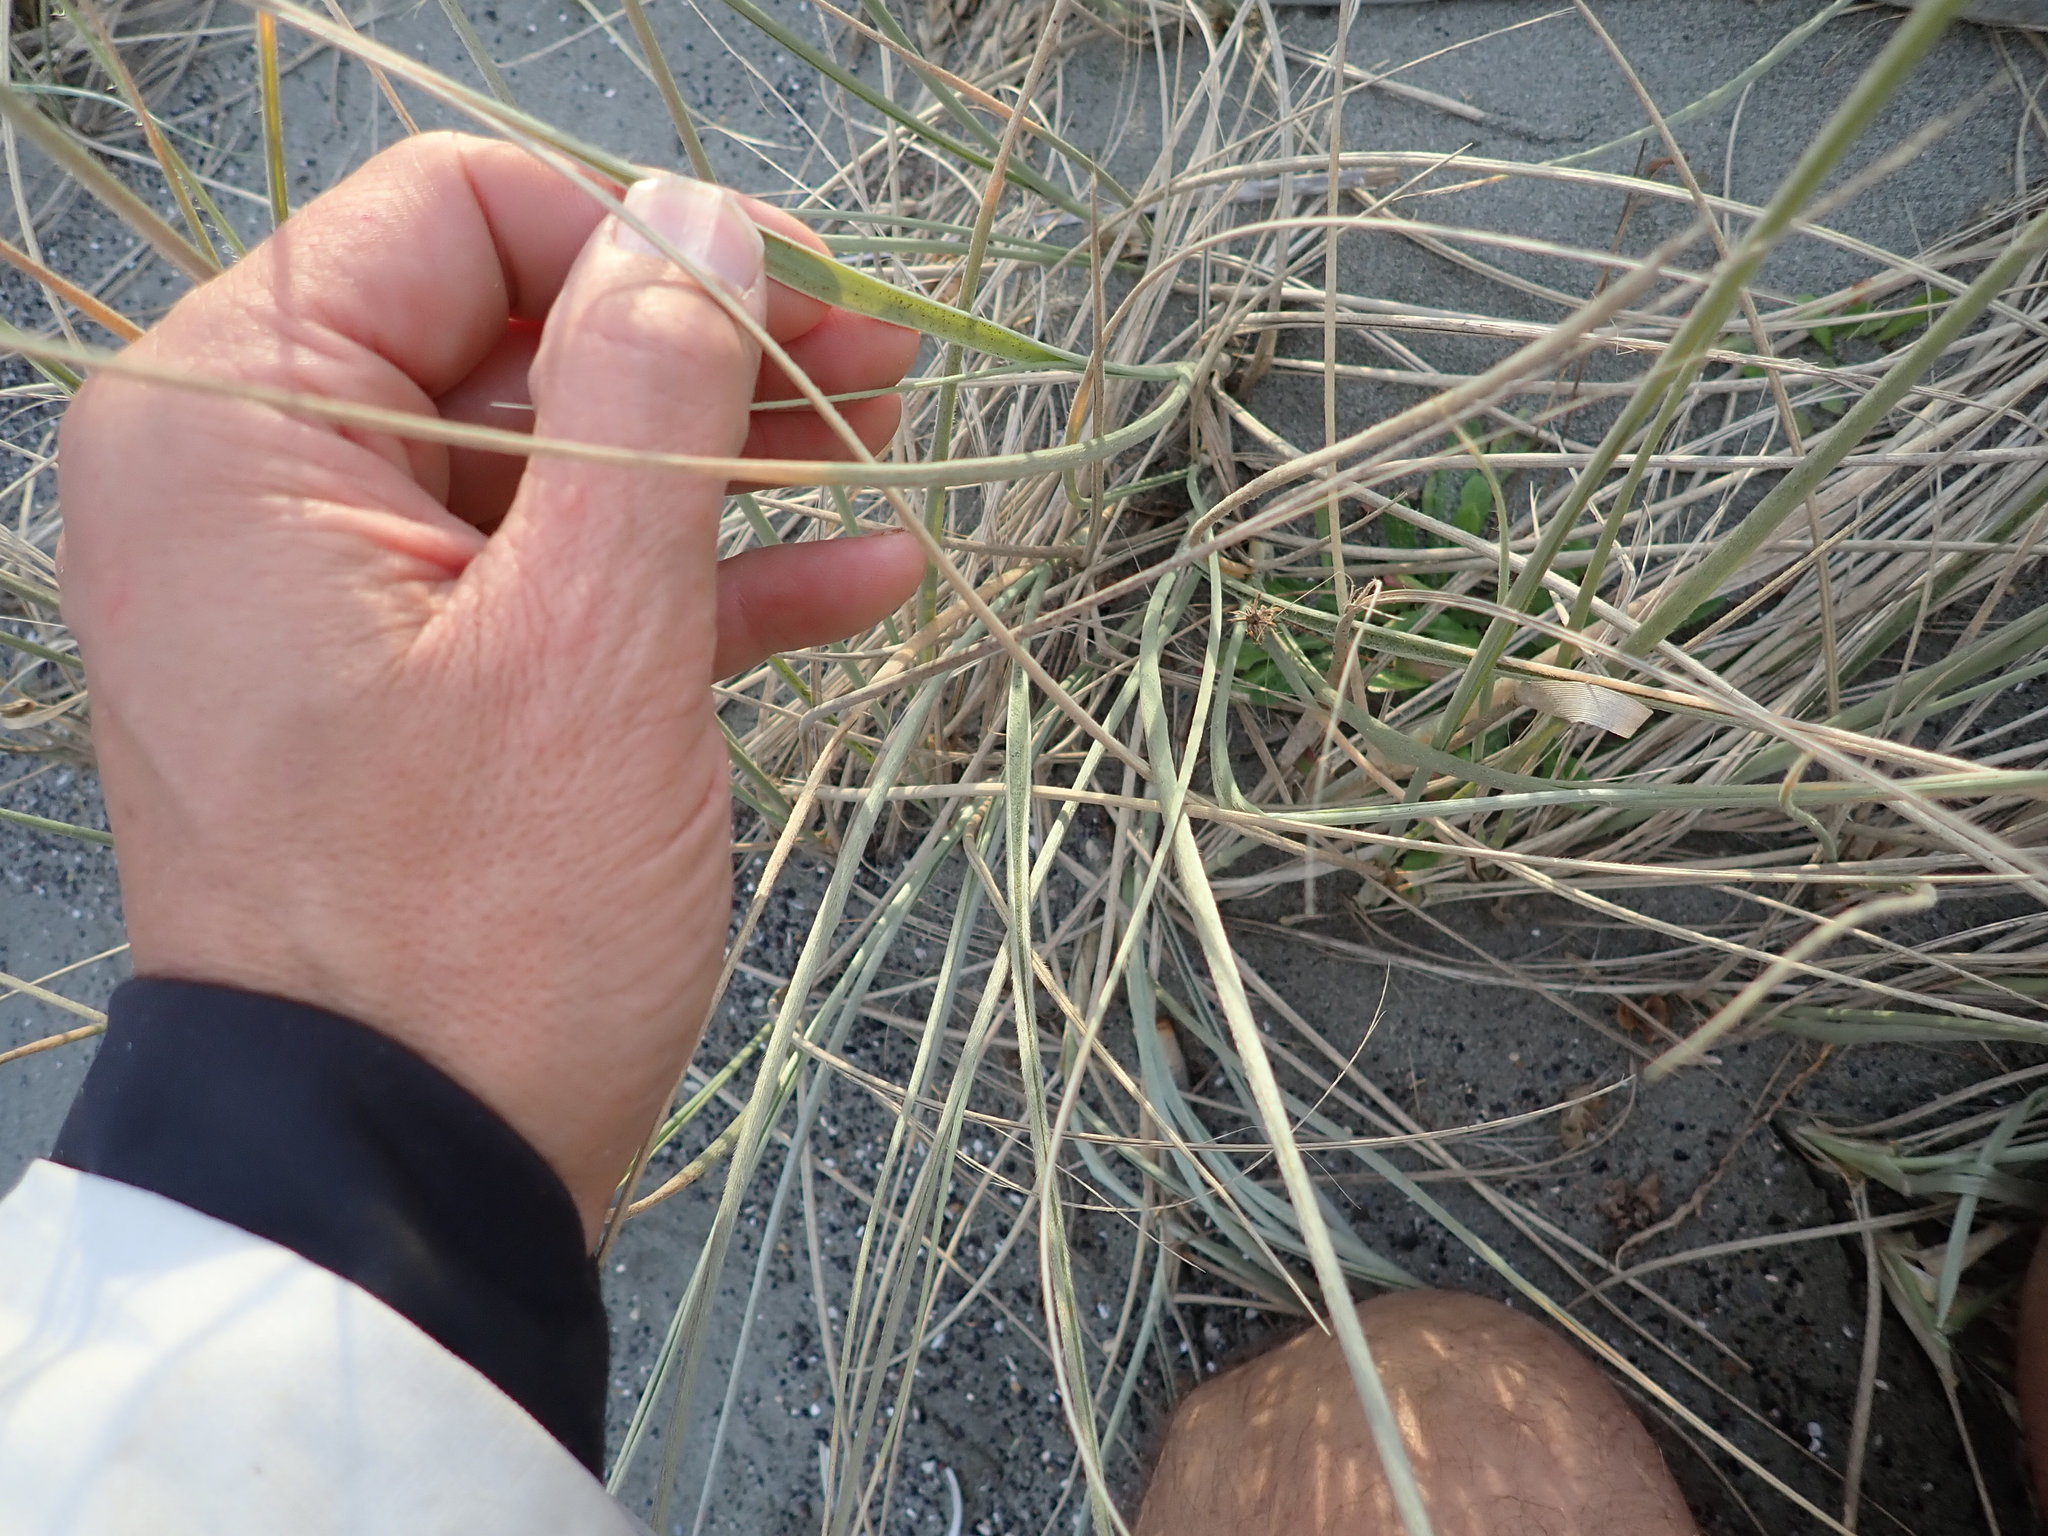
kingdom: Plantae
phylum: Tracheophyta
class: Liliopsida
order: Poales
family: Poaceae
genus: Spinifex
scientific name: Spinifex sericeus
